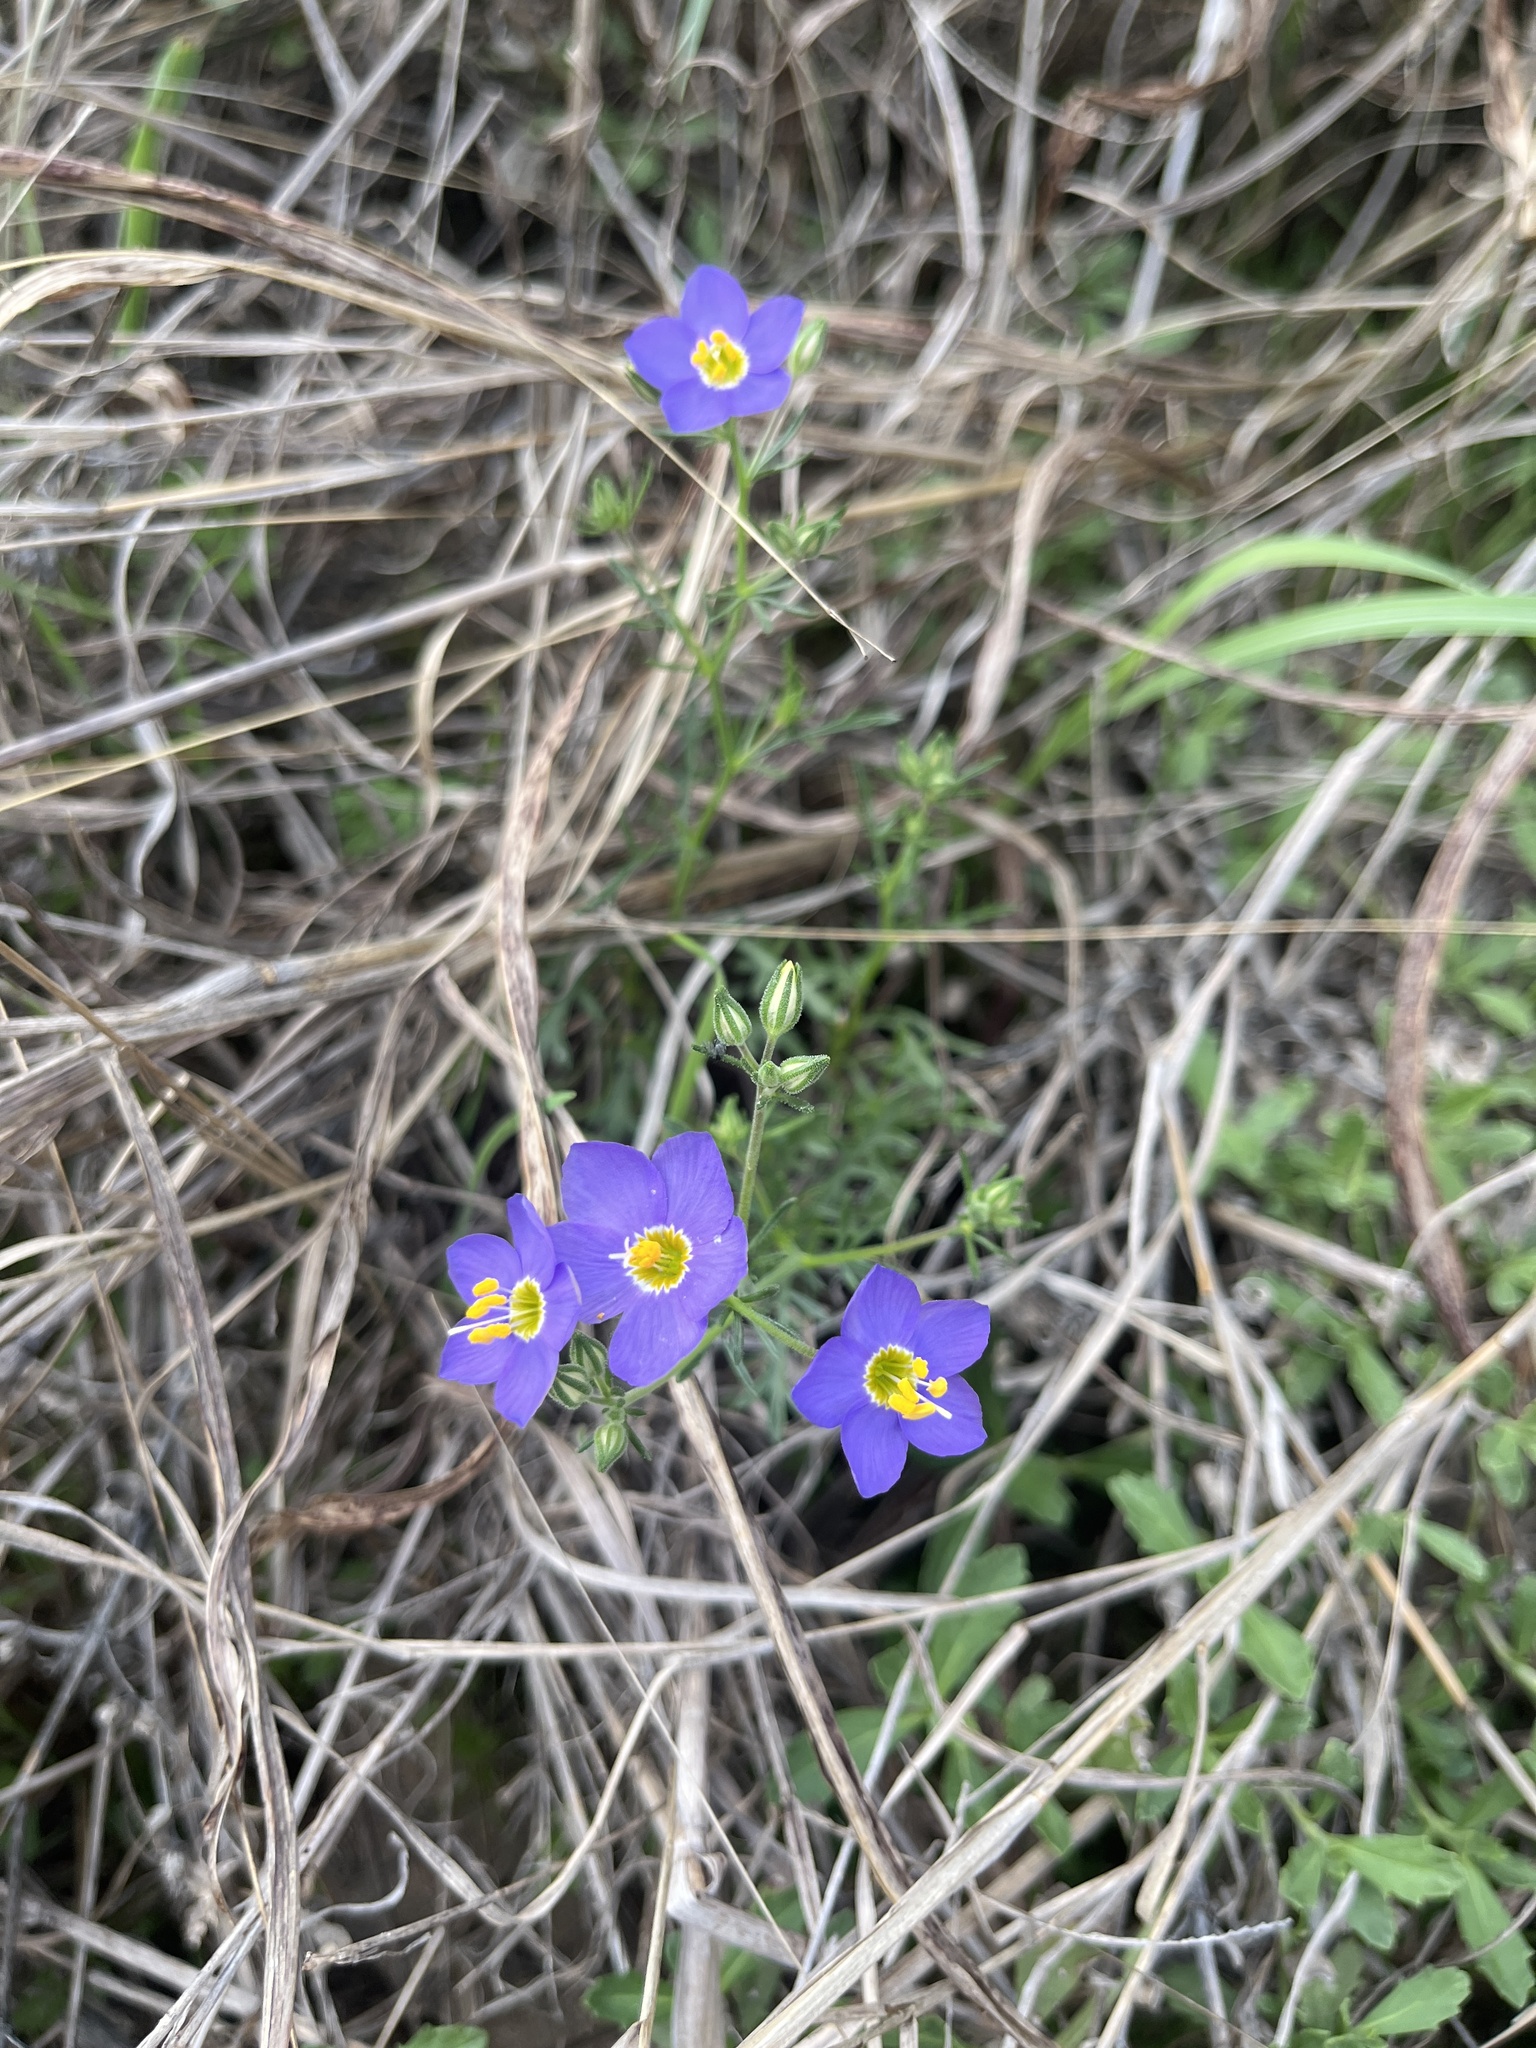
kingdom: Plantae
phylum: Tracheophyta
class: Magnoliopsida
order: Ericales
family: Polemoniaceae
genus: Giliastrum
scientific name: Giliastrum rigidulum
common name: Bluebowls
